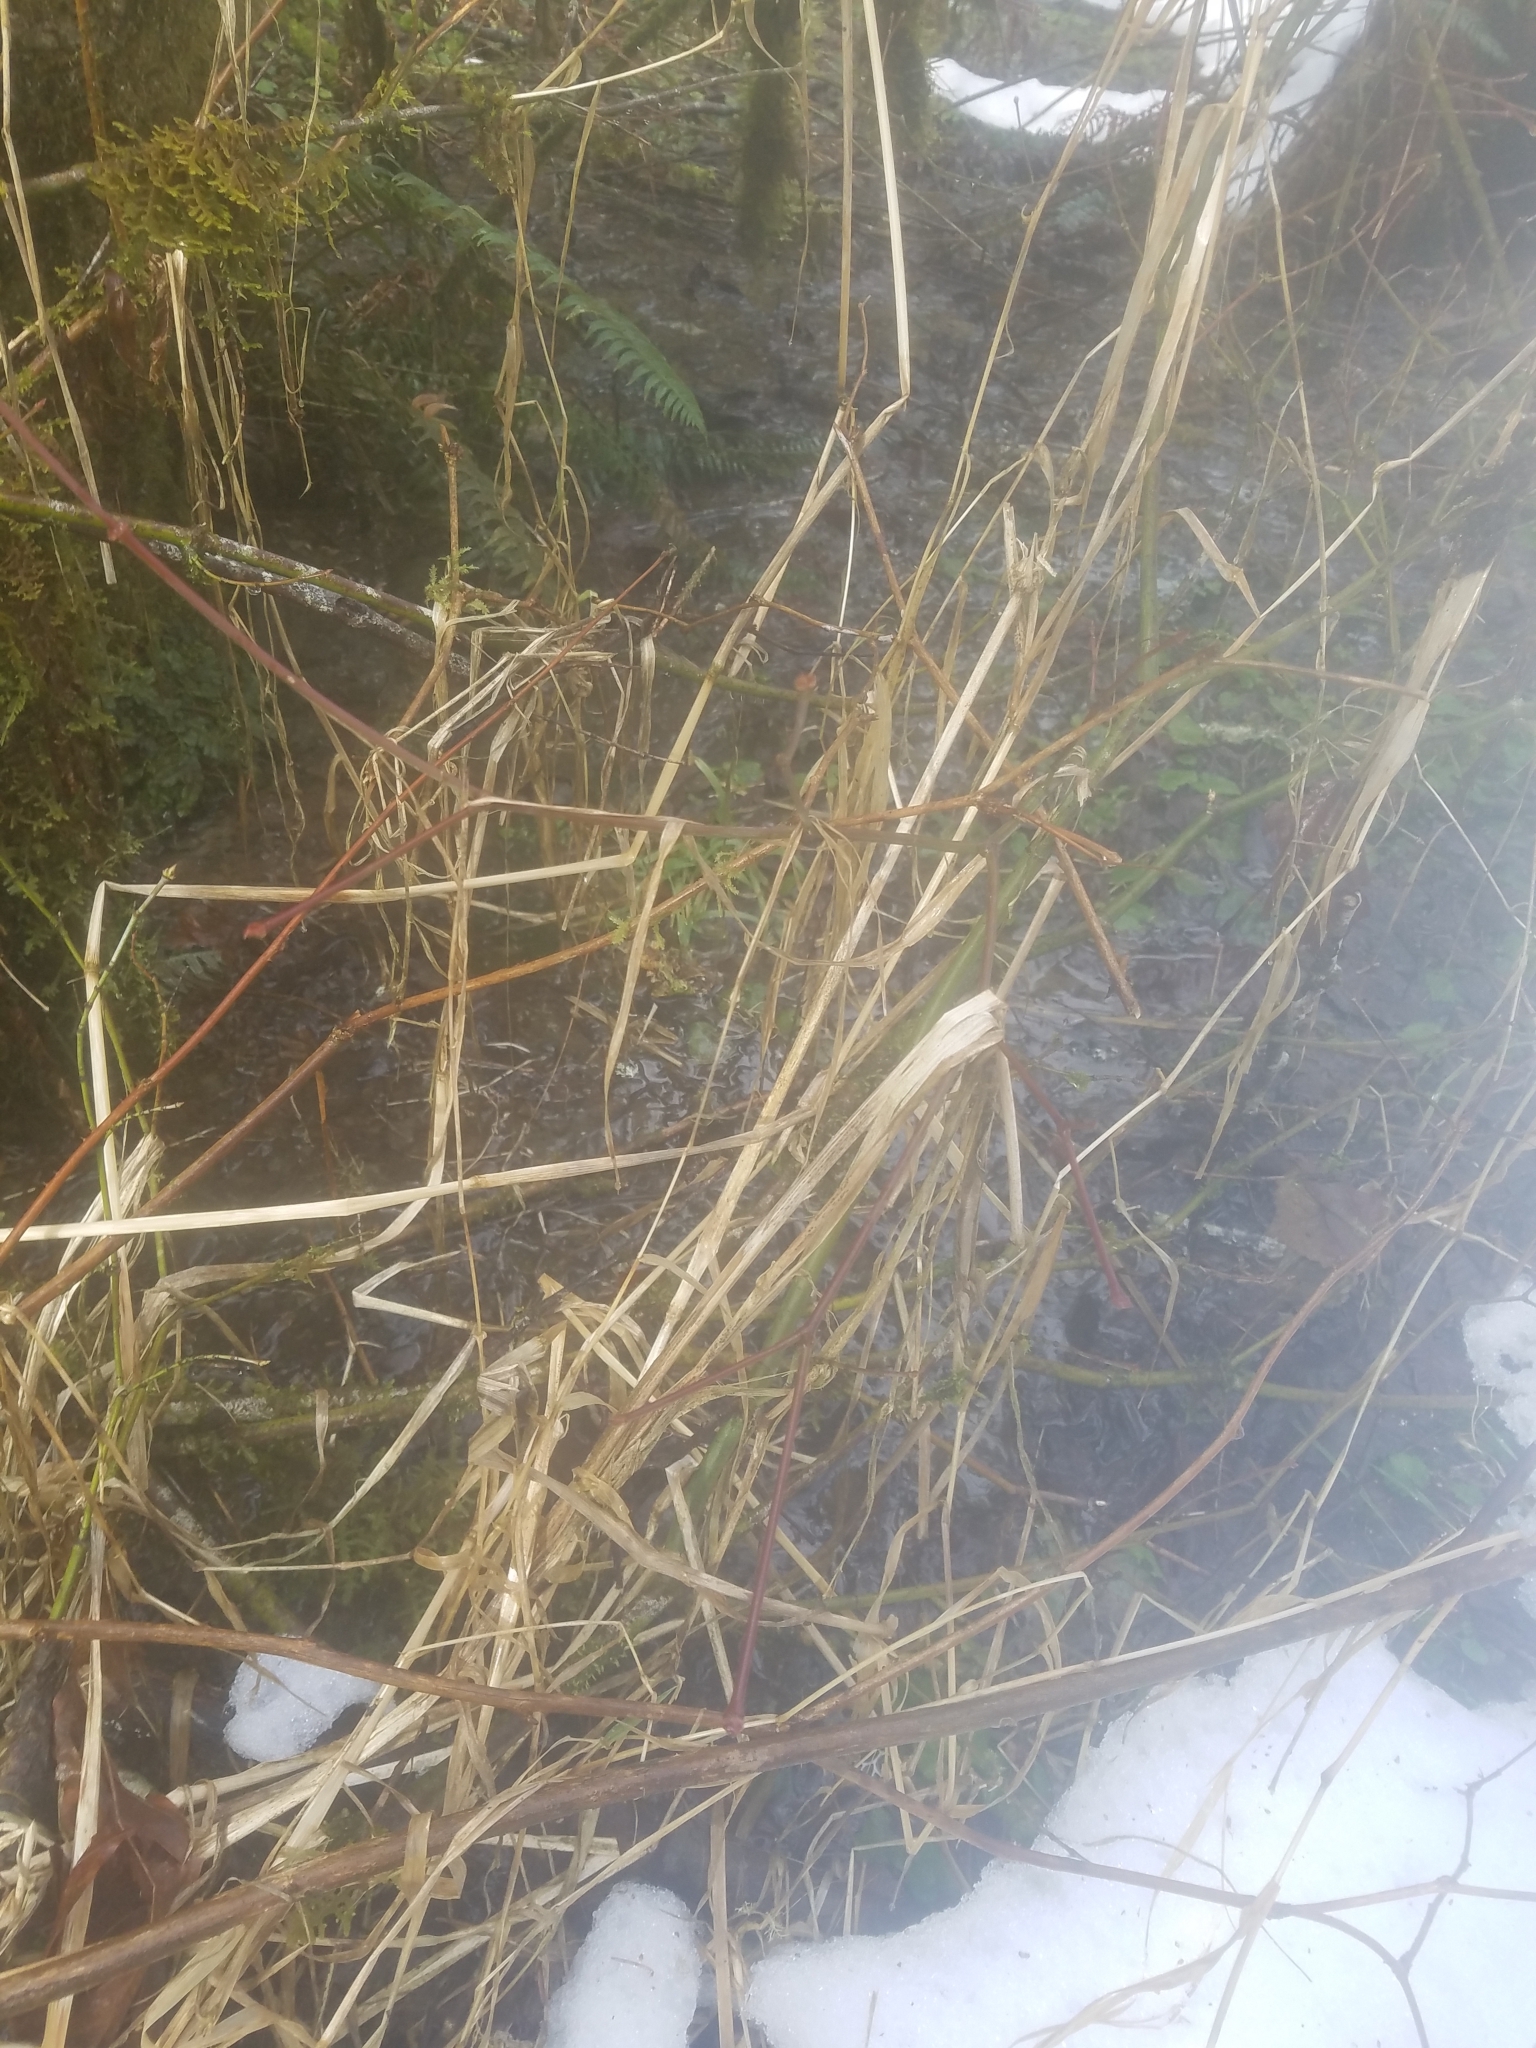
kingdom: Plantae
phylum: Tracheophyta
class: Liliopsida
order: Poales
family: Poaceae
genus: Phalaris
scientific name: Phalaris arundinacea
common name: Reed canary-grass
